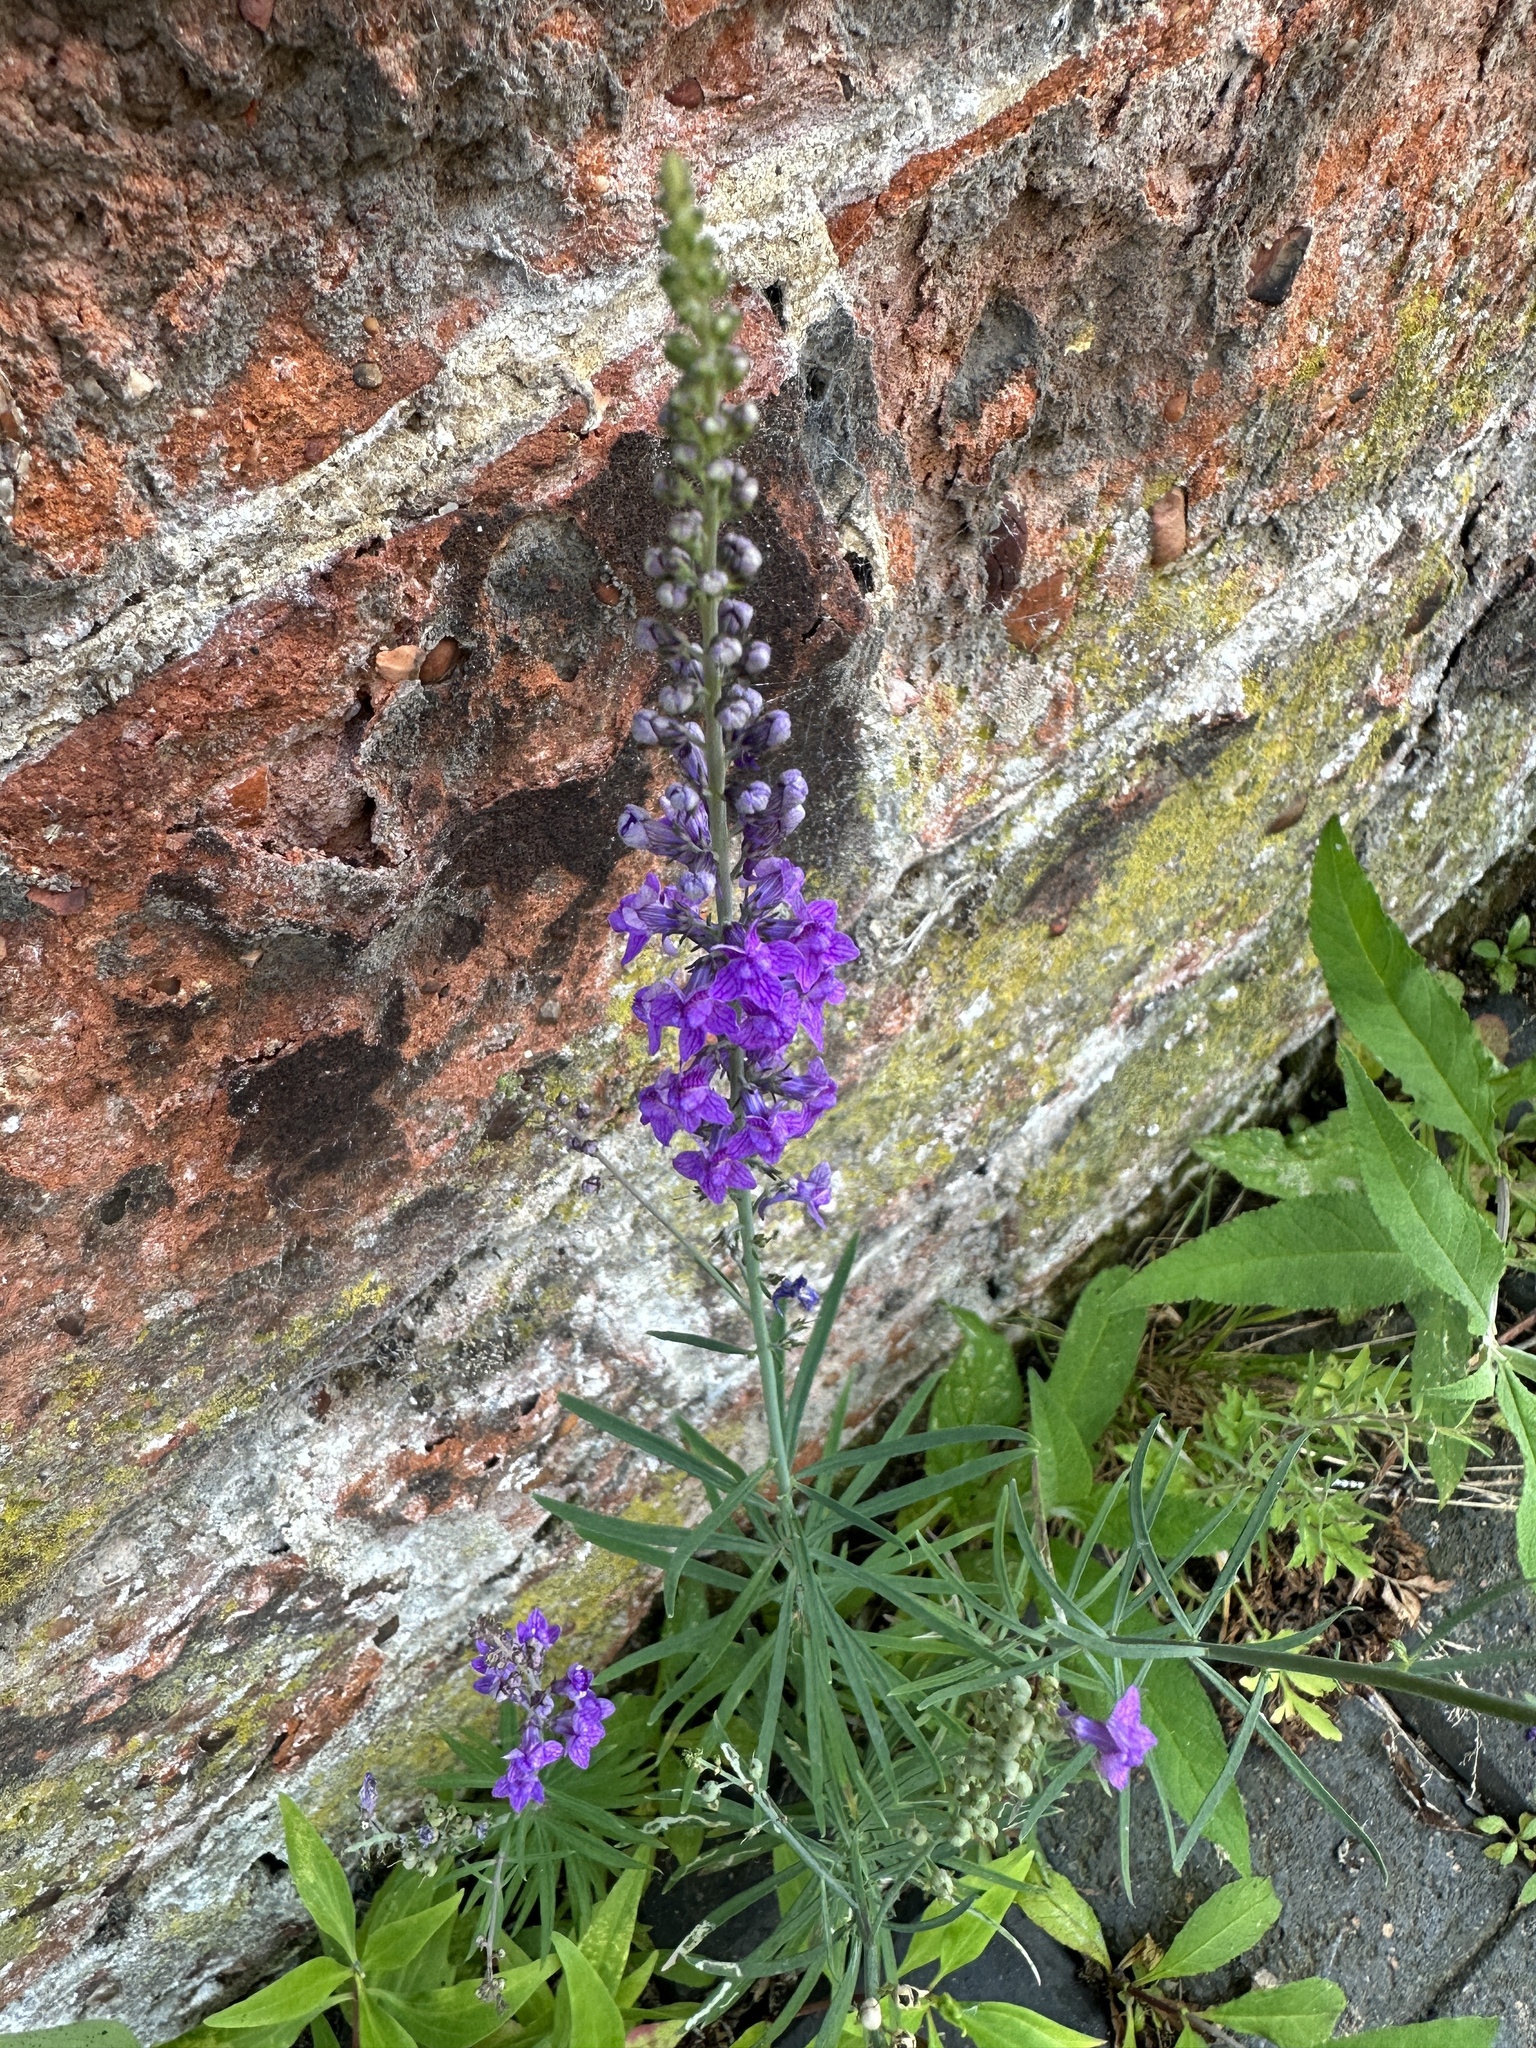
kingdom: Plantae
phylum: Tracheophyta
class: Magnoliopsida
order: Lamiales
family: Plantaginaceae
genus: Linaria
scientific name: Linaria purpurea
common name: Purple toadflax
